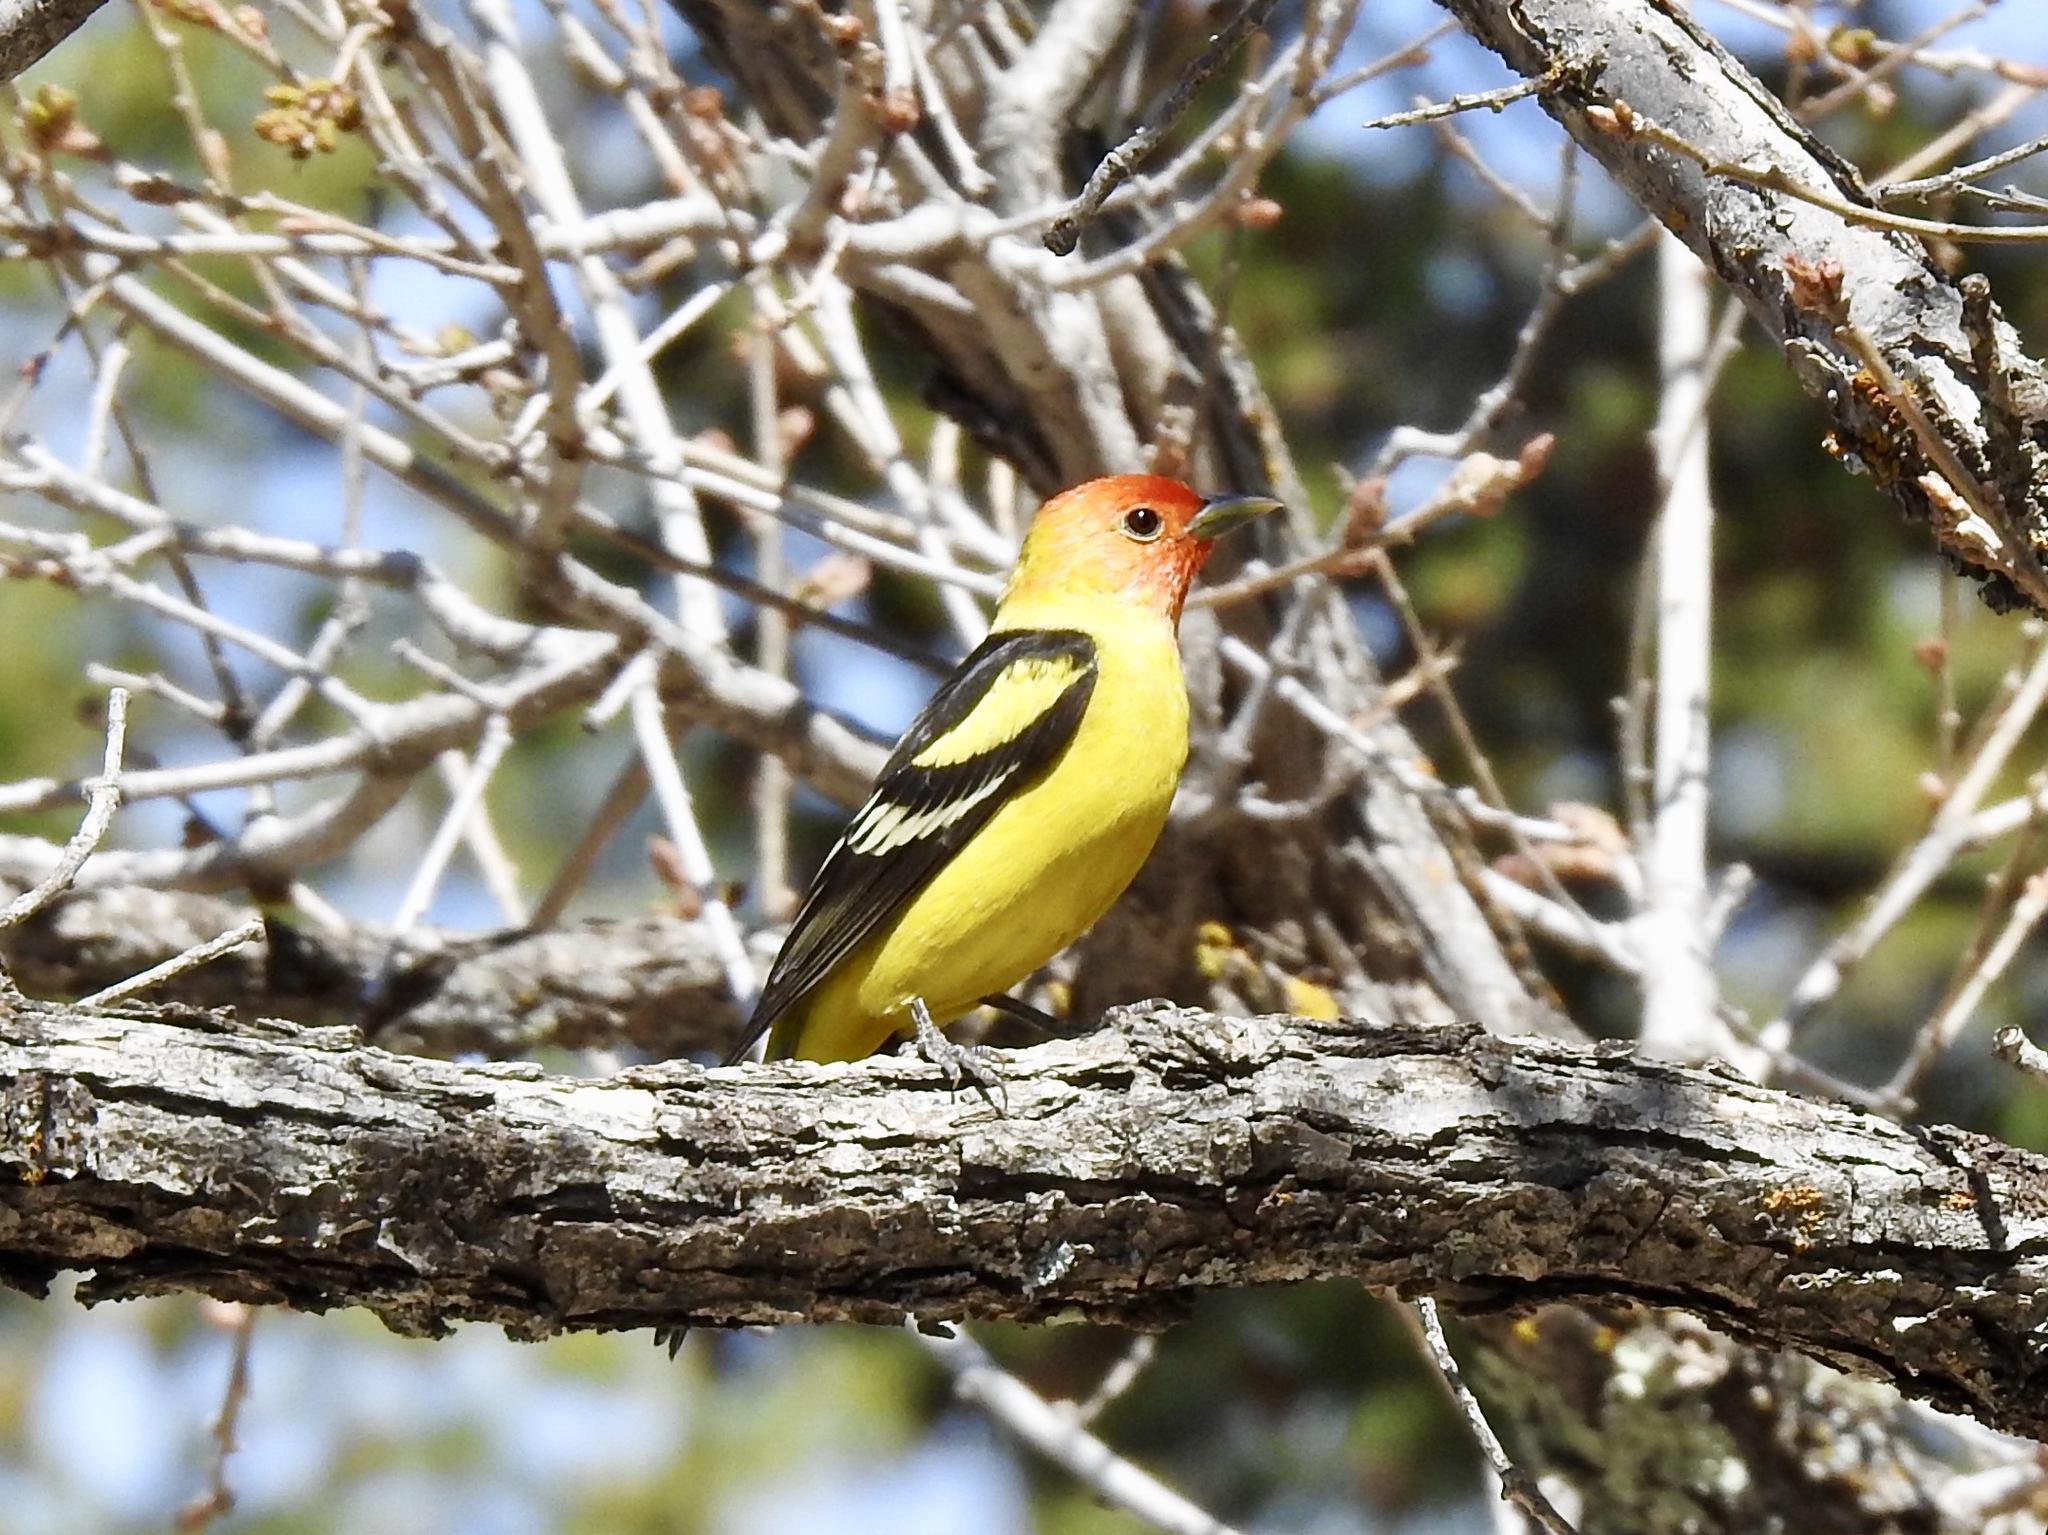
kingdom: Animalia
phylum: Chordata
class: Aves
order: Passeriformes
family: Cardinalidae
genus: Piranga
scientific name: Piranga ludoviciana
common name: Western tanager
